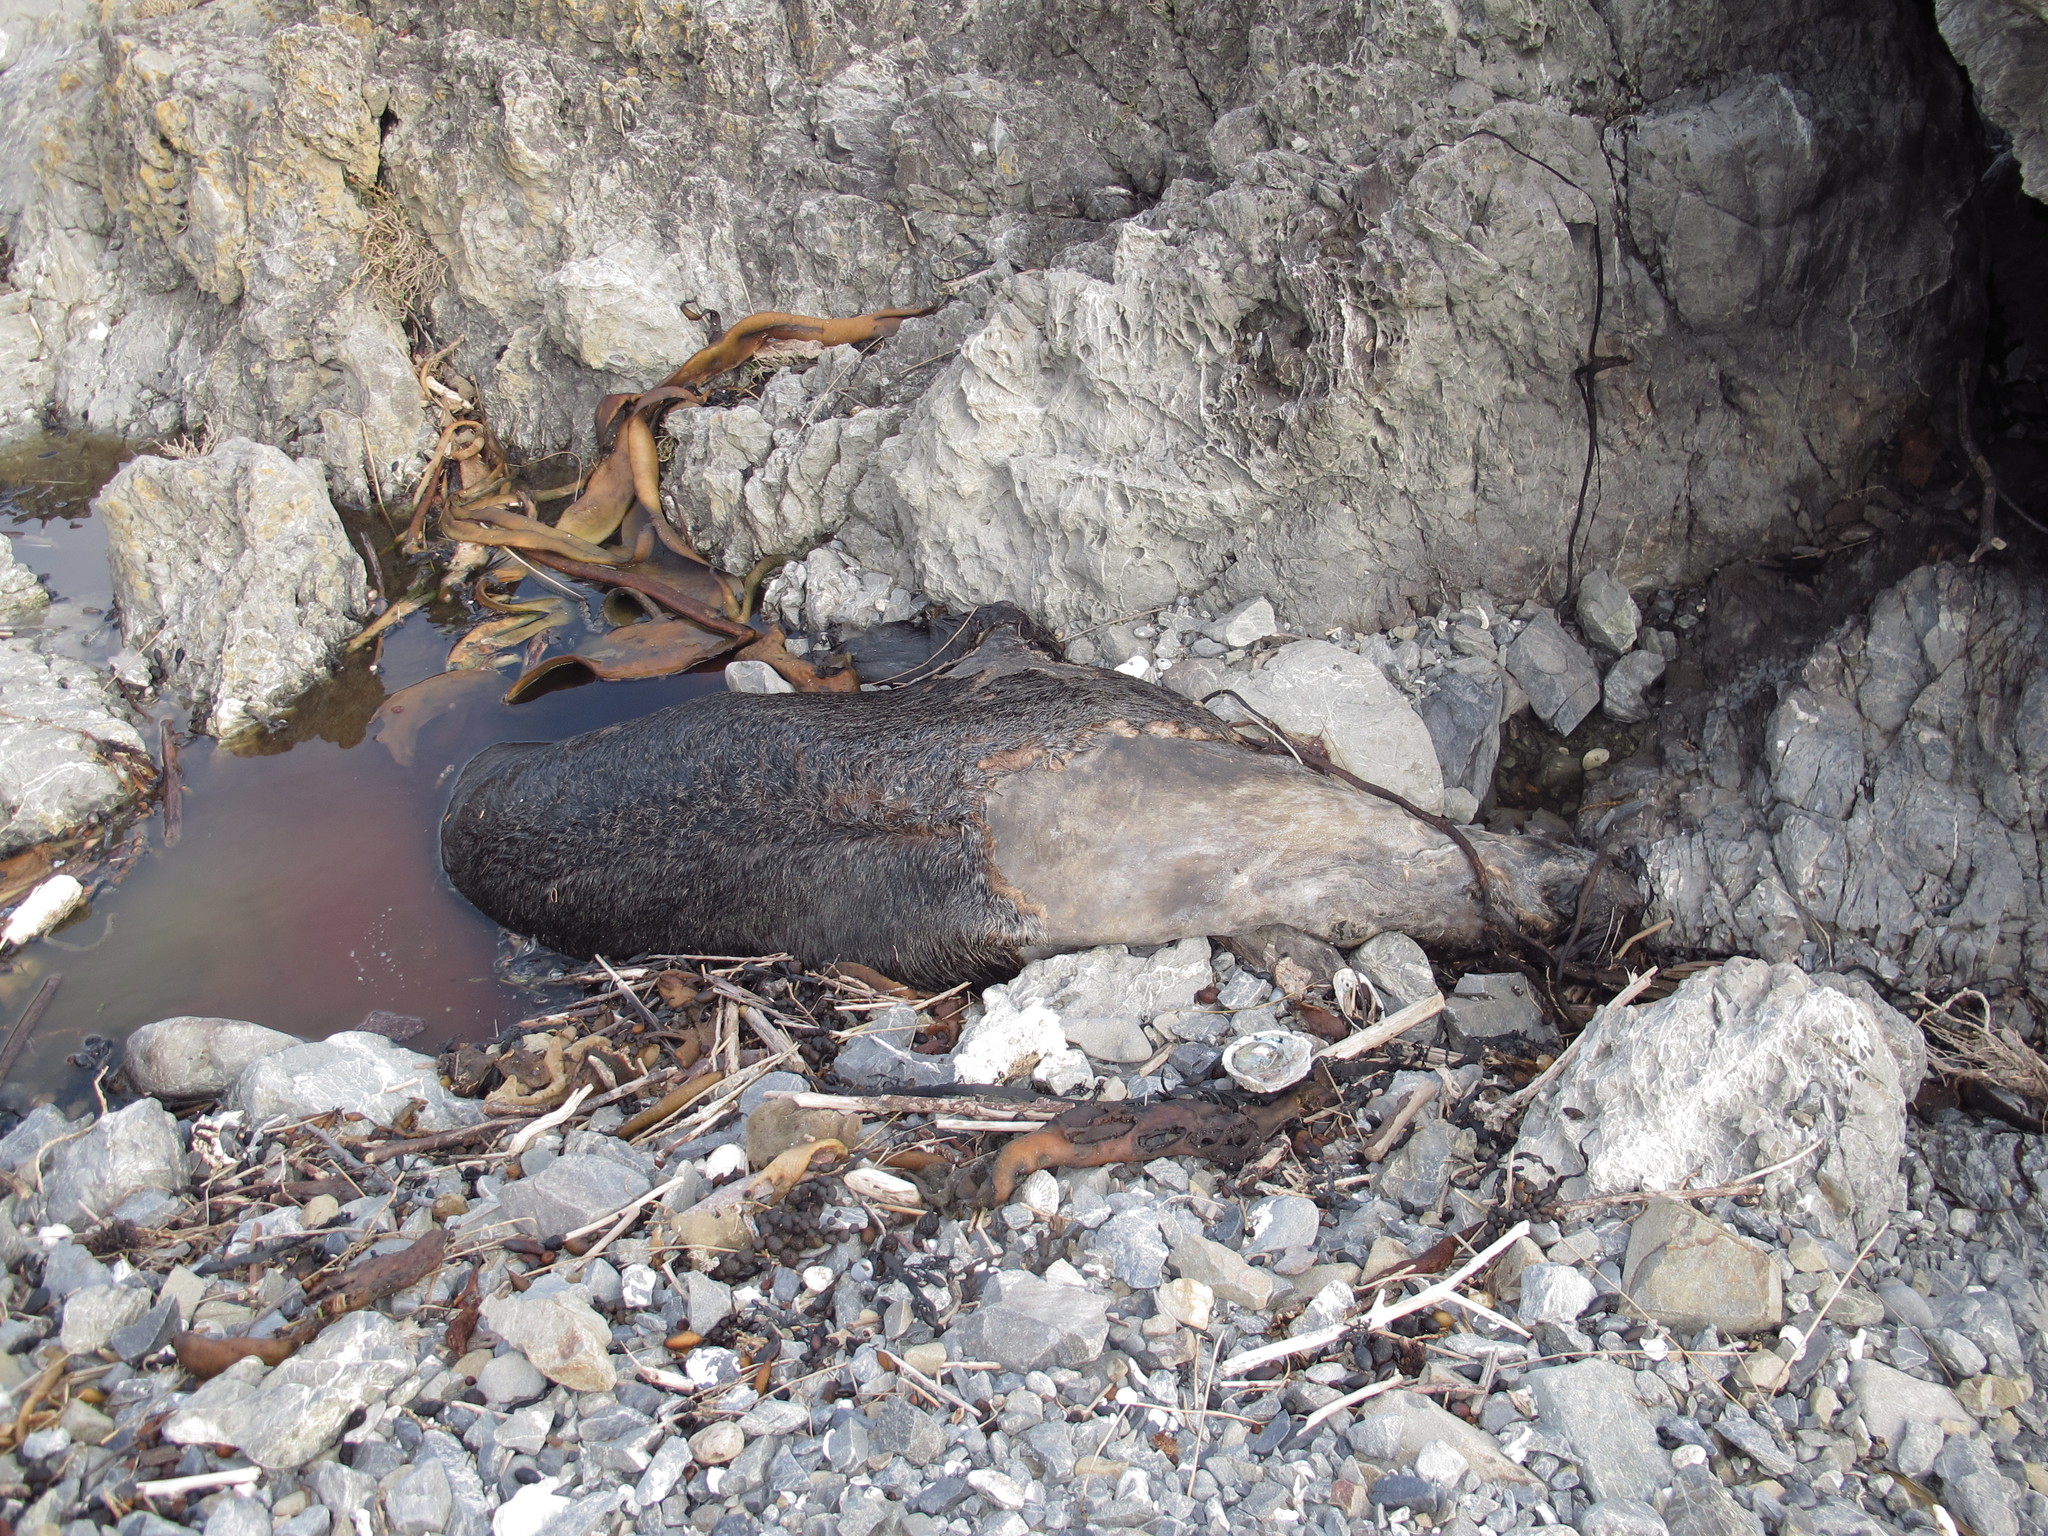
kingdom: Animalia
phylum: Chordata
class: Mammalia
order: Carnivora
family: Otariidae
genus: Arctocephalus
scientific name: Arctocephalus forsteri
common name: New zealand fur seal
